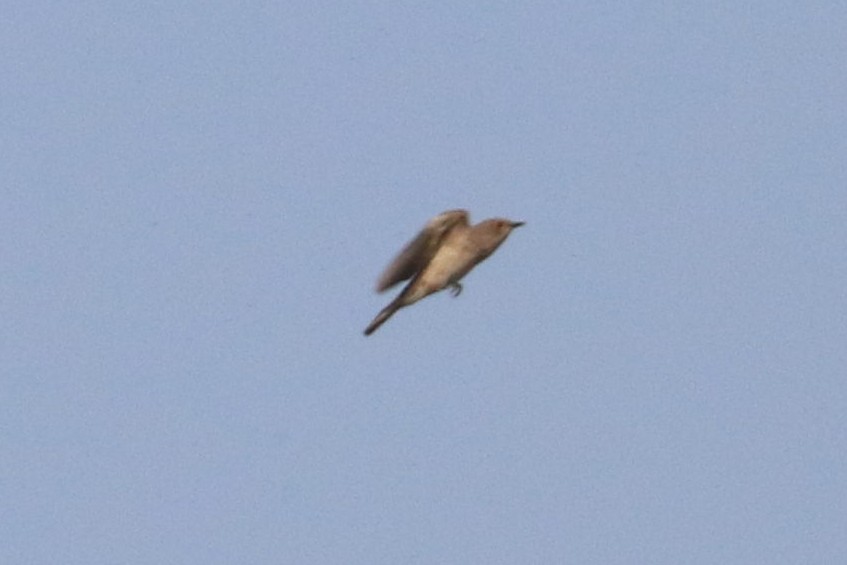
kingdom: Animalia
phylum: Chordata
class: Aves
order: Passeriformes
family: Muscicapidae
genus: Muscicapa
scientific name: Muscicapa striata
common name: Spotted flycatcher
